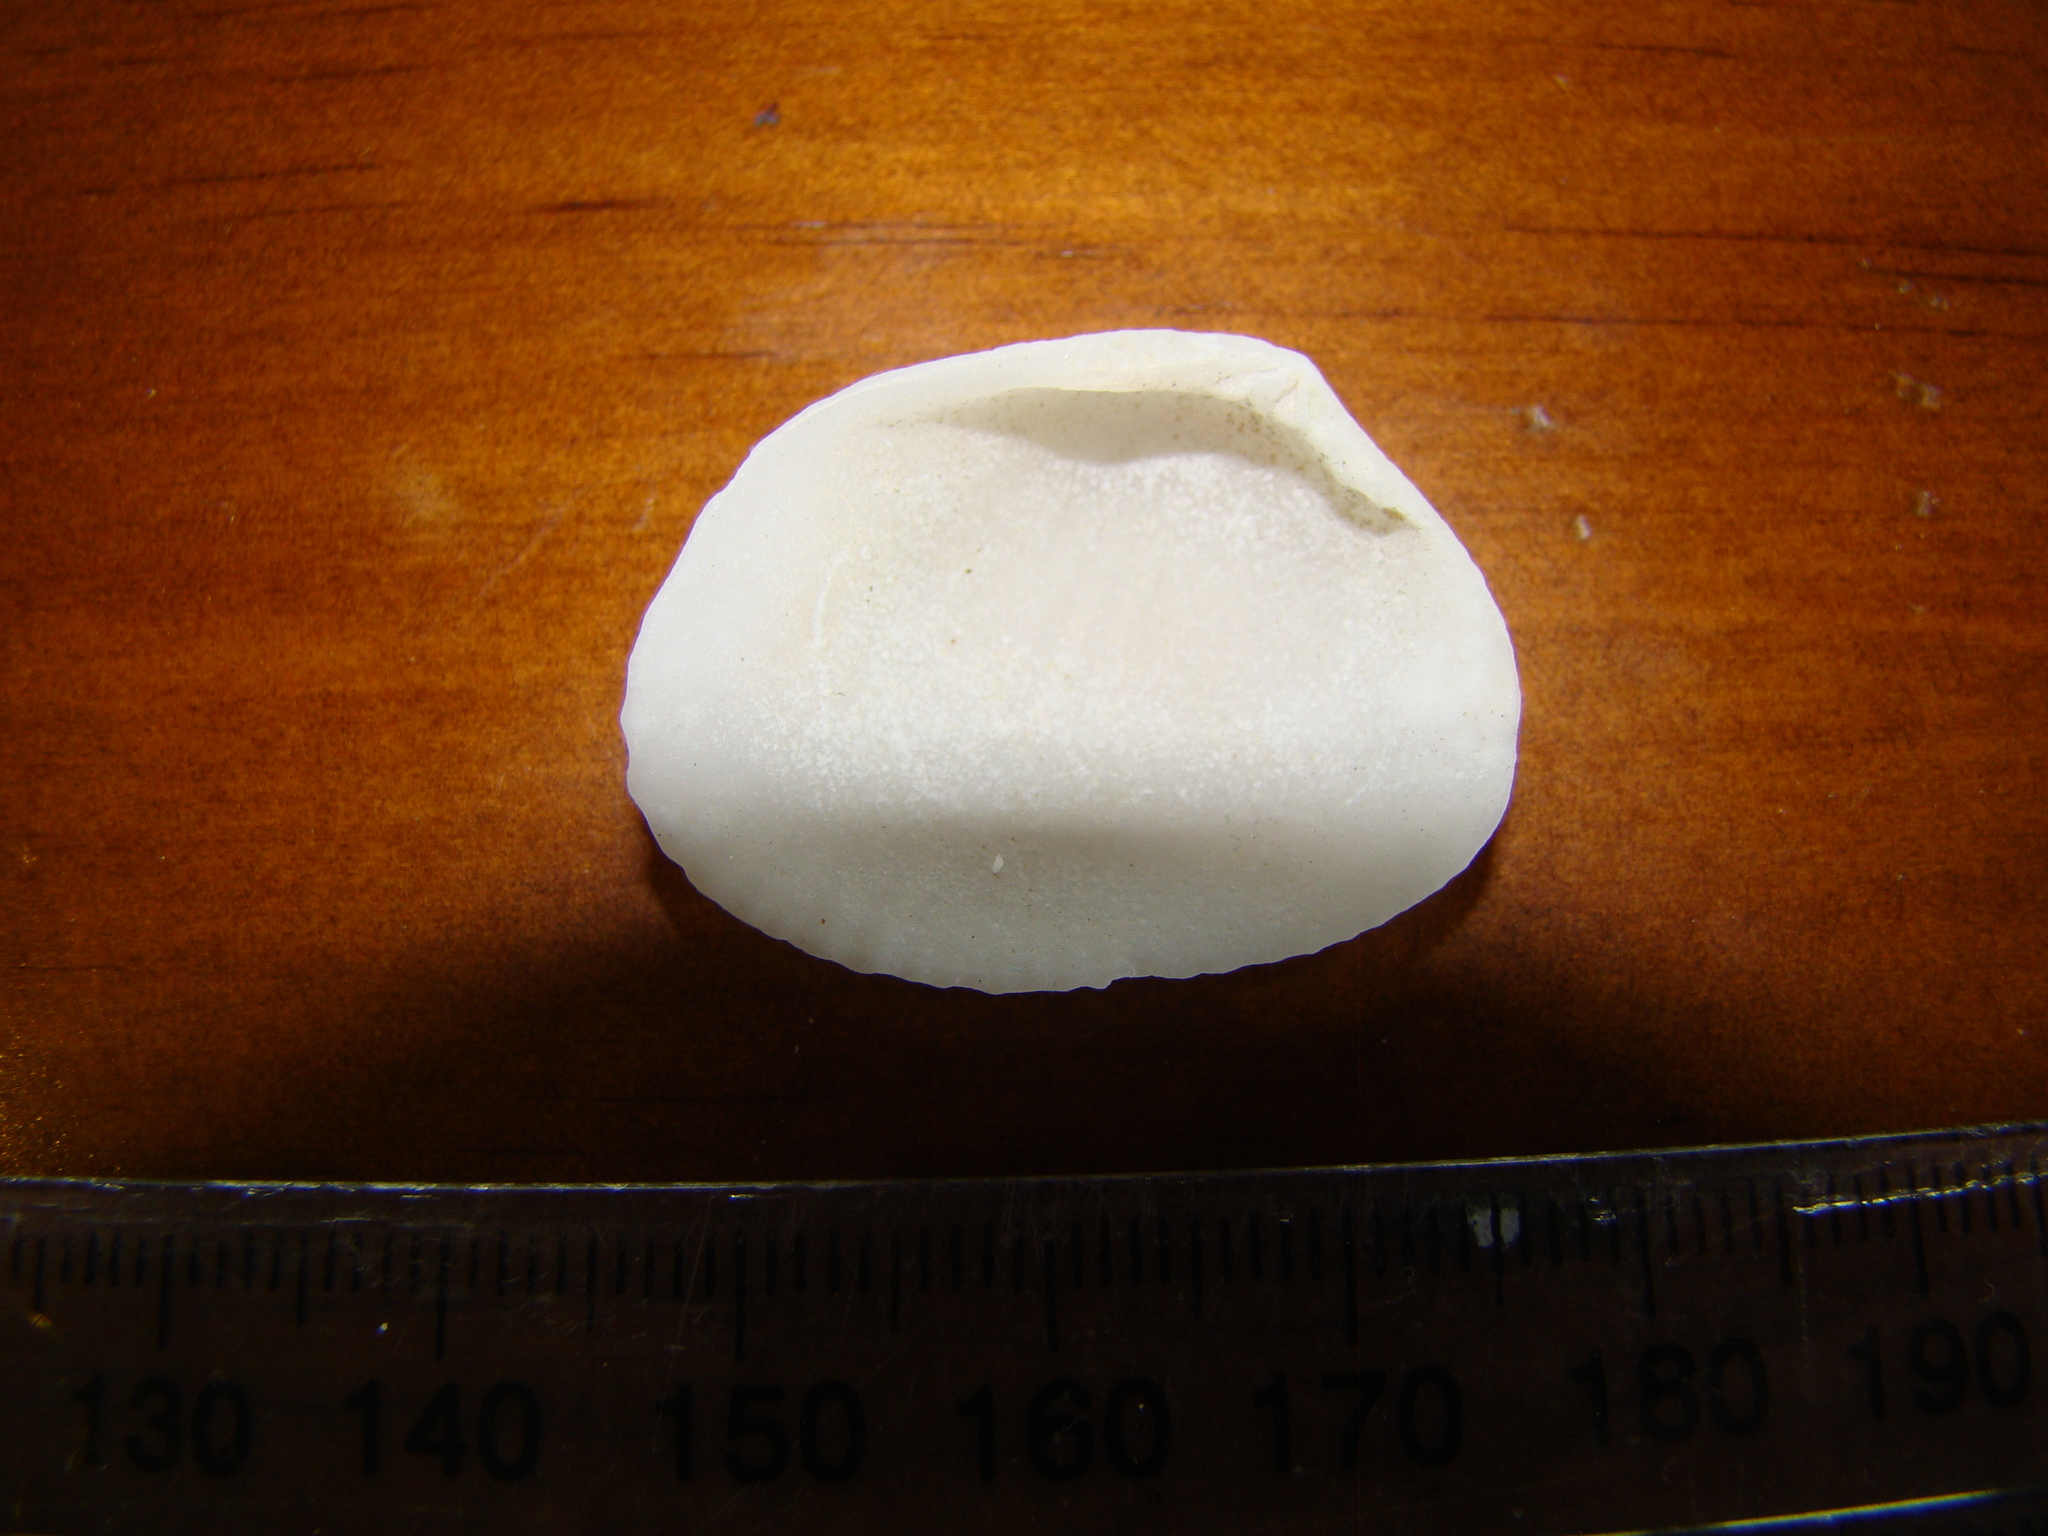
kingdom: Animalia
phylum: Mollusca
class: Bivalvia
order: Venerida
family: Veneridae
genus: Gafrarium
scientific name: Gafrarium pectinatum
